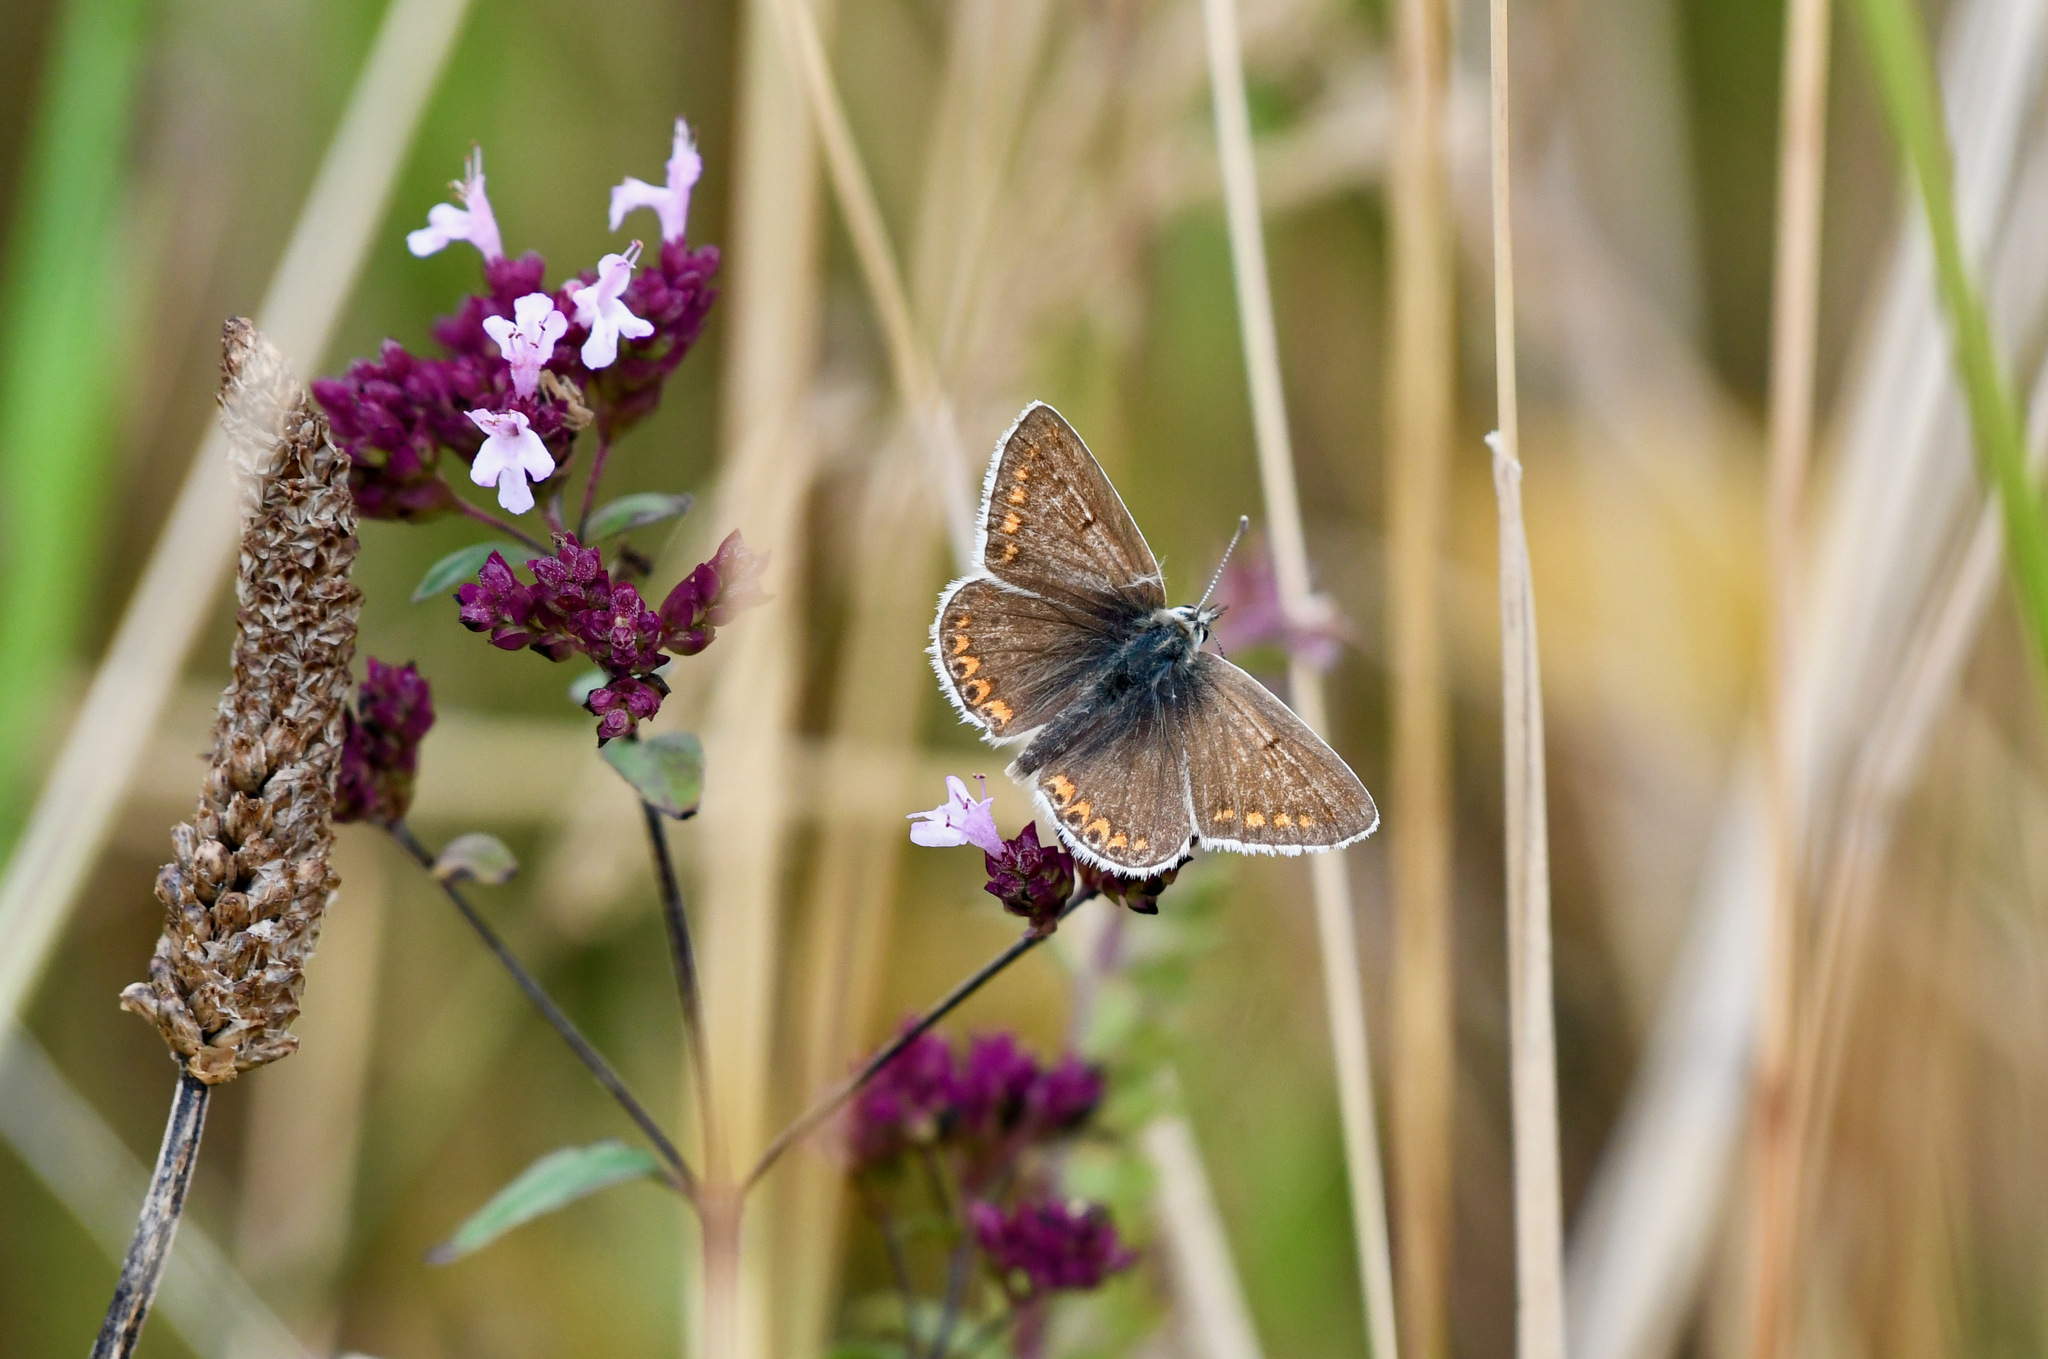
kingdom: Animalia
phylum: Arthropoda
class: Insecta
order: Lepidoptera
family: Lycaenidae
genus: Aricia
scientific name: Aricia agestis
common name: Brown argus
